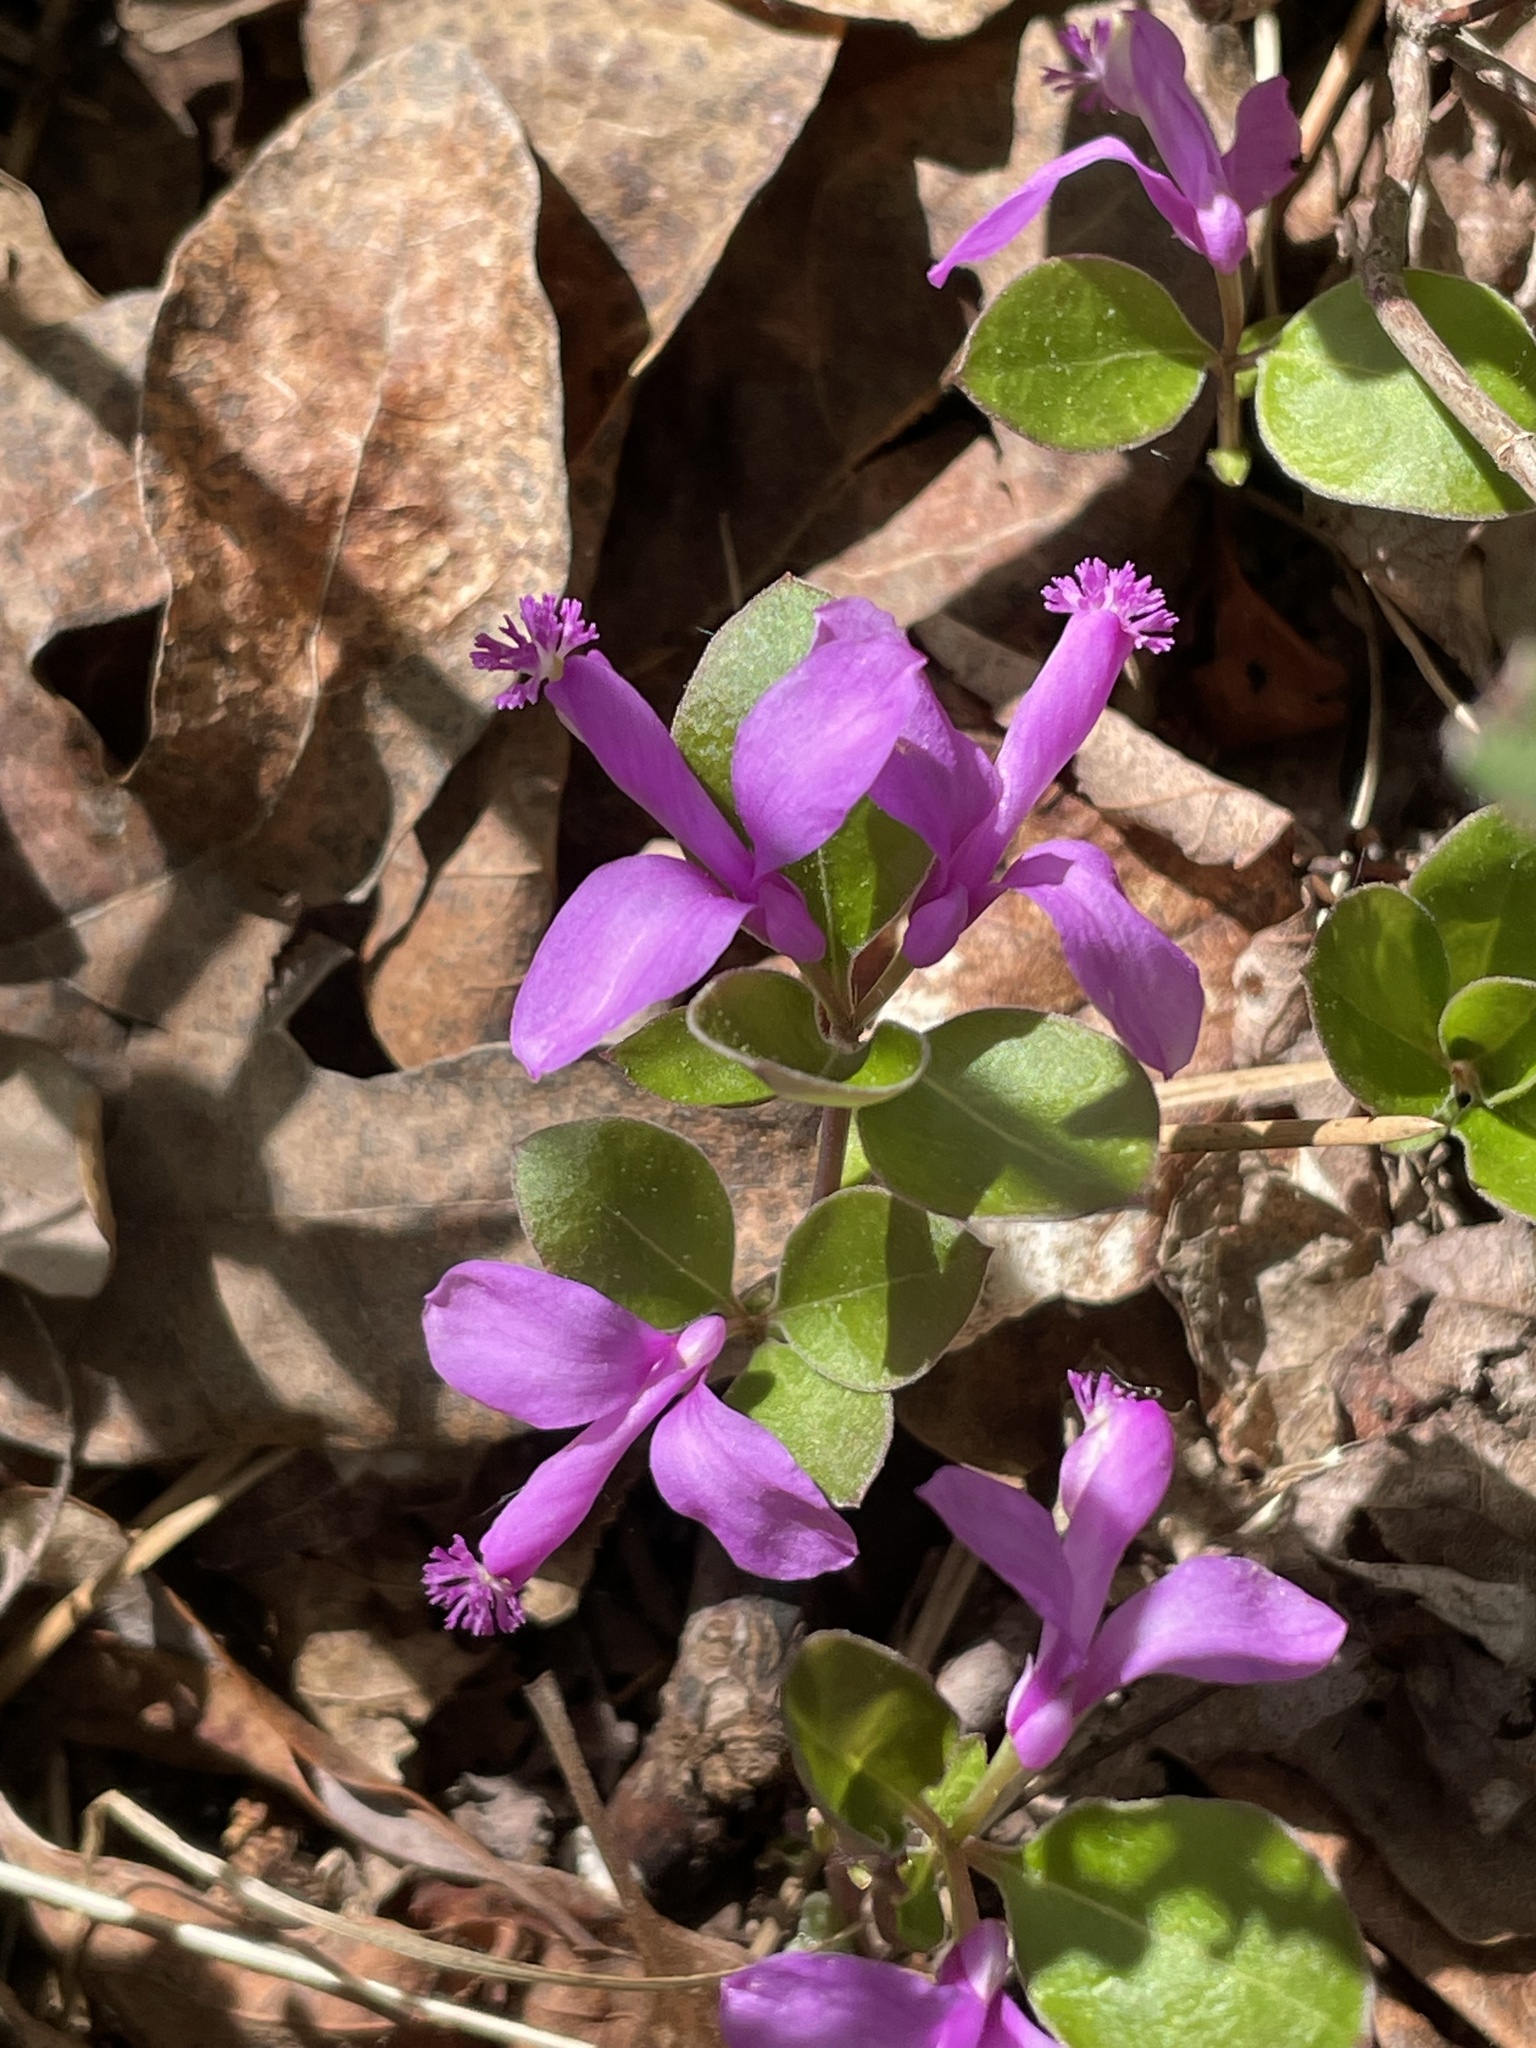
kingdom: Plantae
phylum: Tracheophyta
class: Magnoliopsida
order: Fabales
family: Polygalaceae
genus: Polygaloides
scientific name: Polygaloides paucifolia
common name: Bird-on-the-wing
